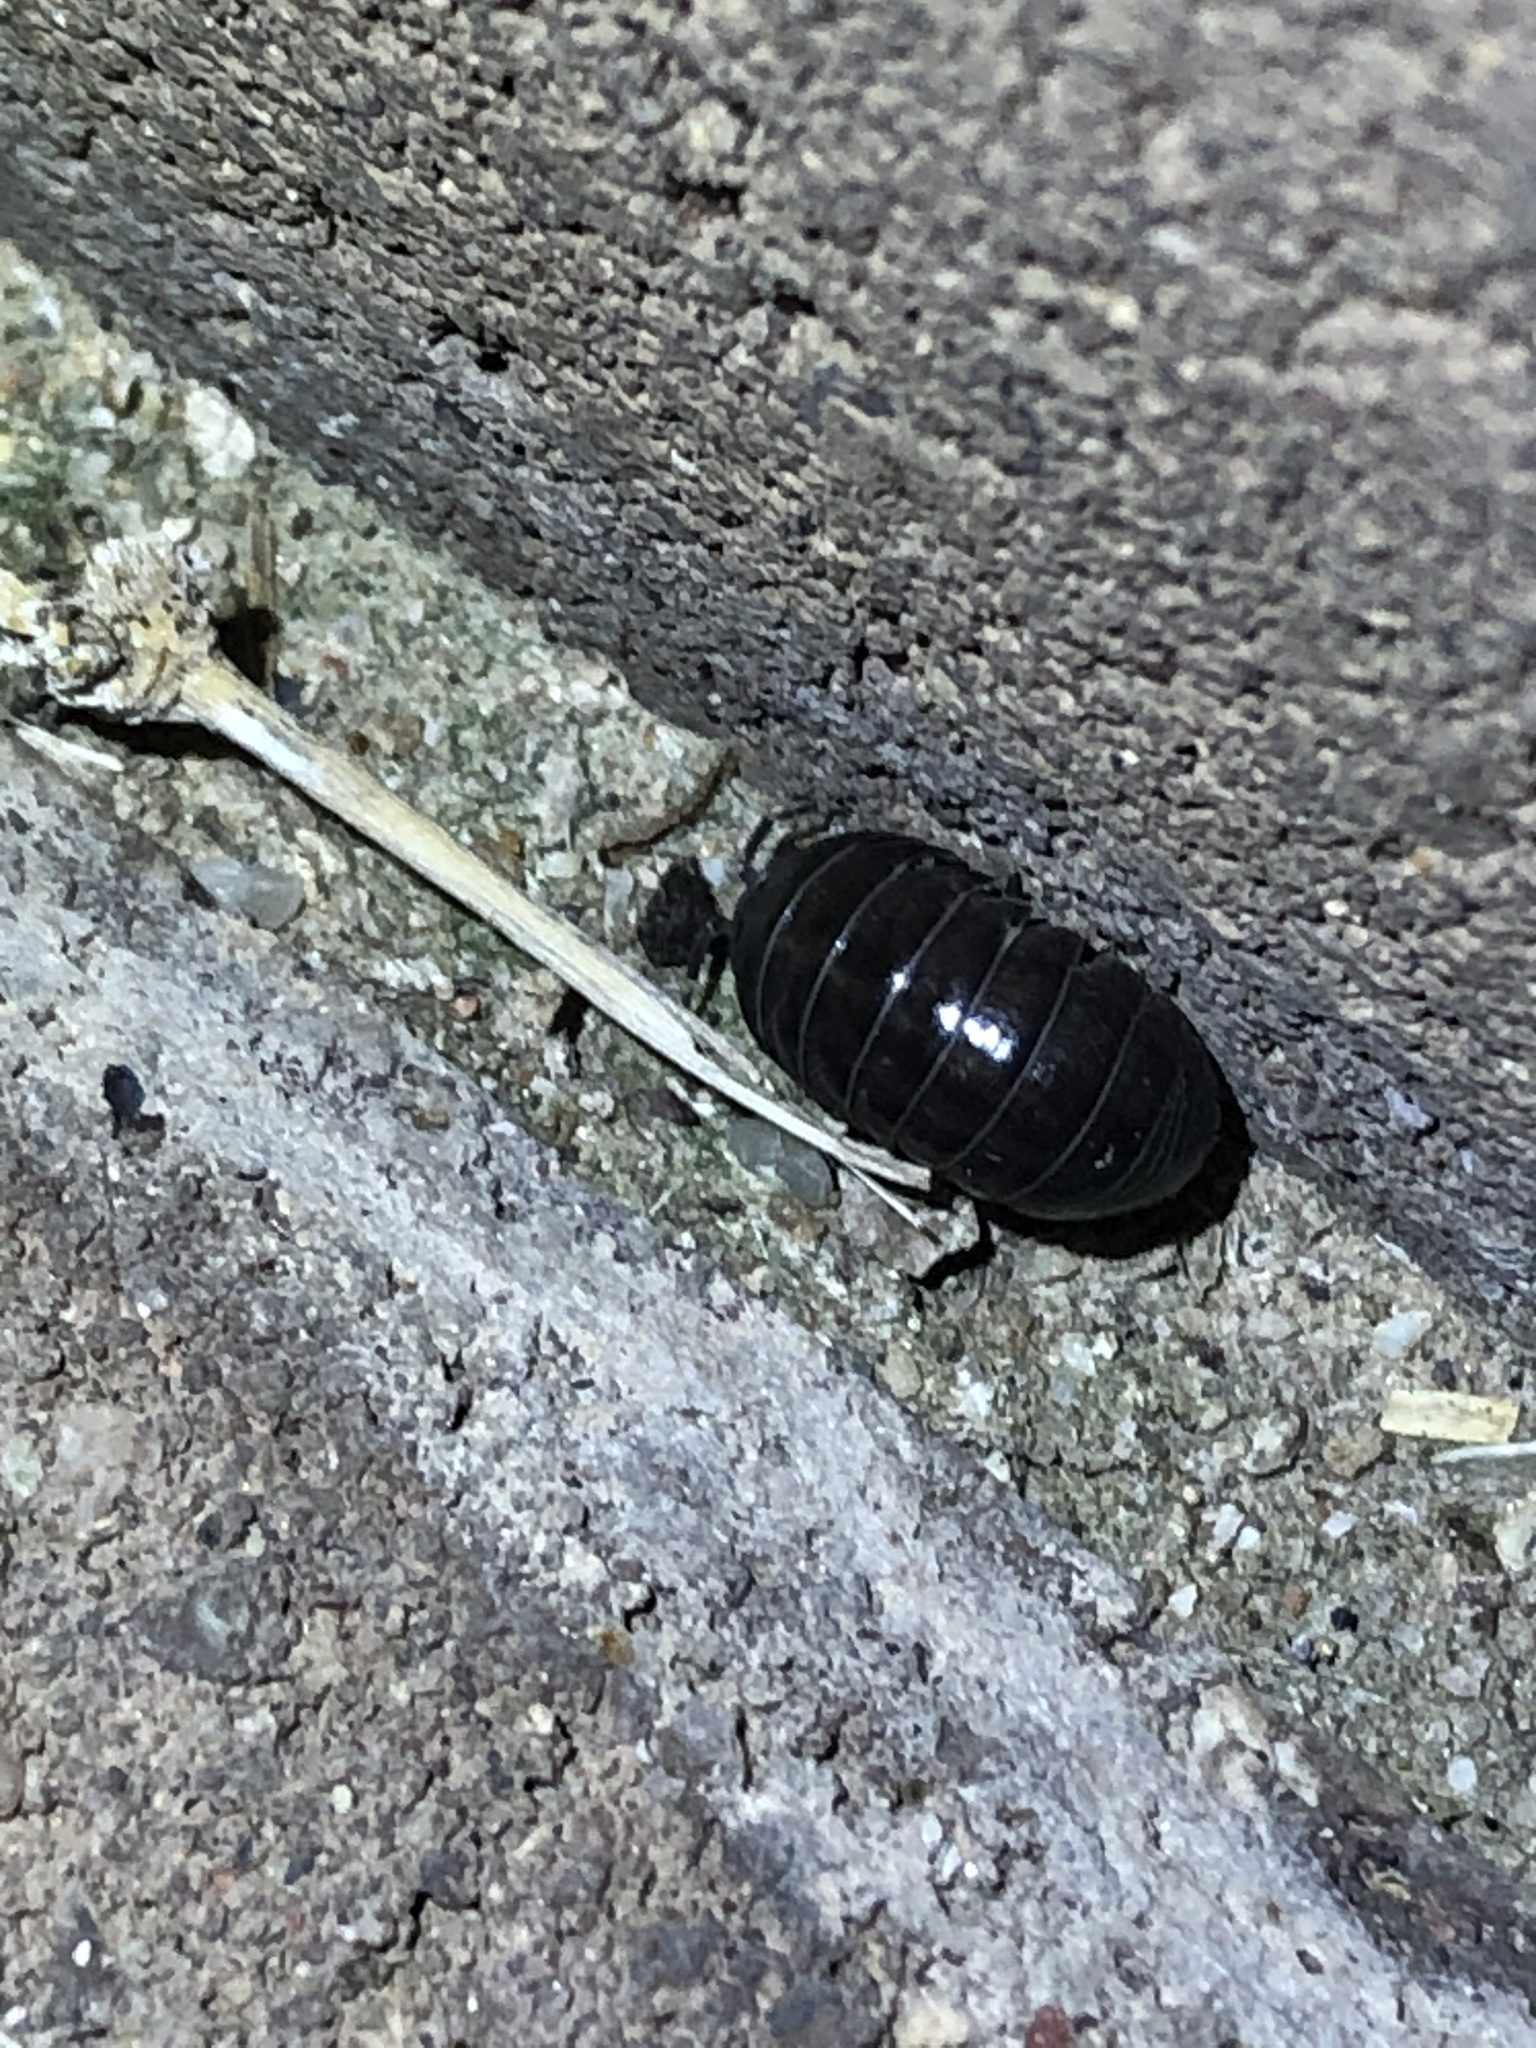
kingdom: Animalia
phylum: Arthropoda
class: Malacostraca
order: Isopoda
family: Armadillidiidae
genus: Armadillidium
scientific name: Armadillidium vulgare
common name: Common pill woodlouse
